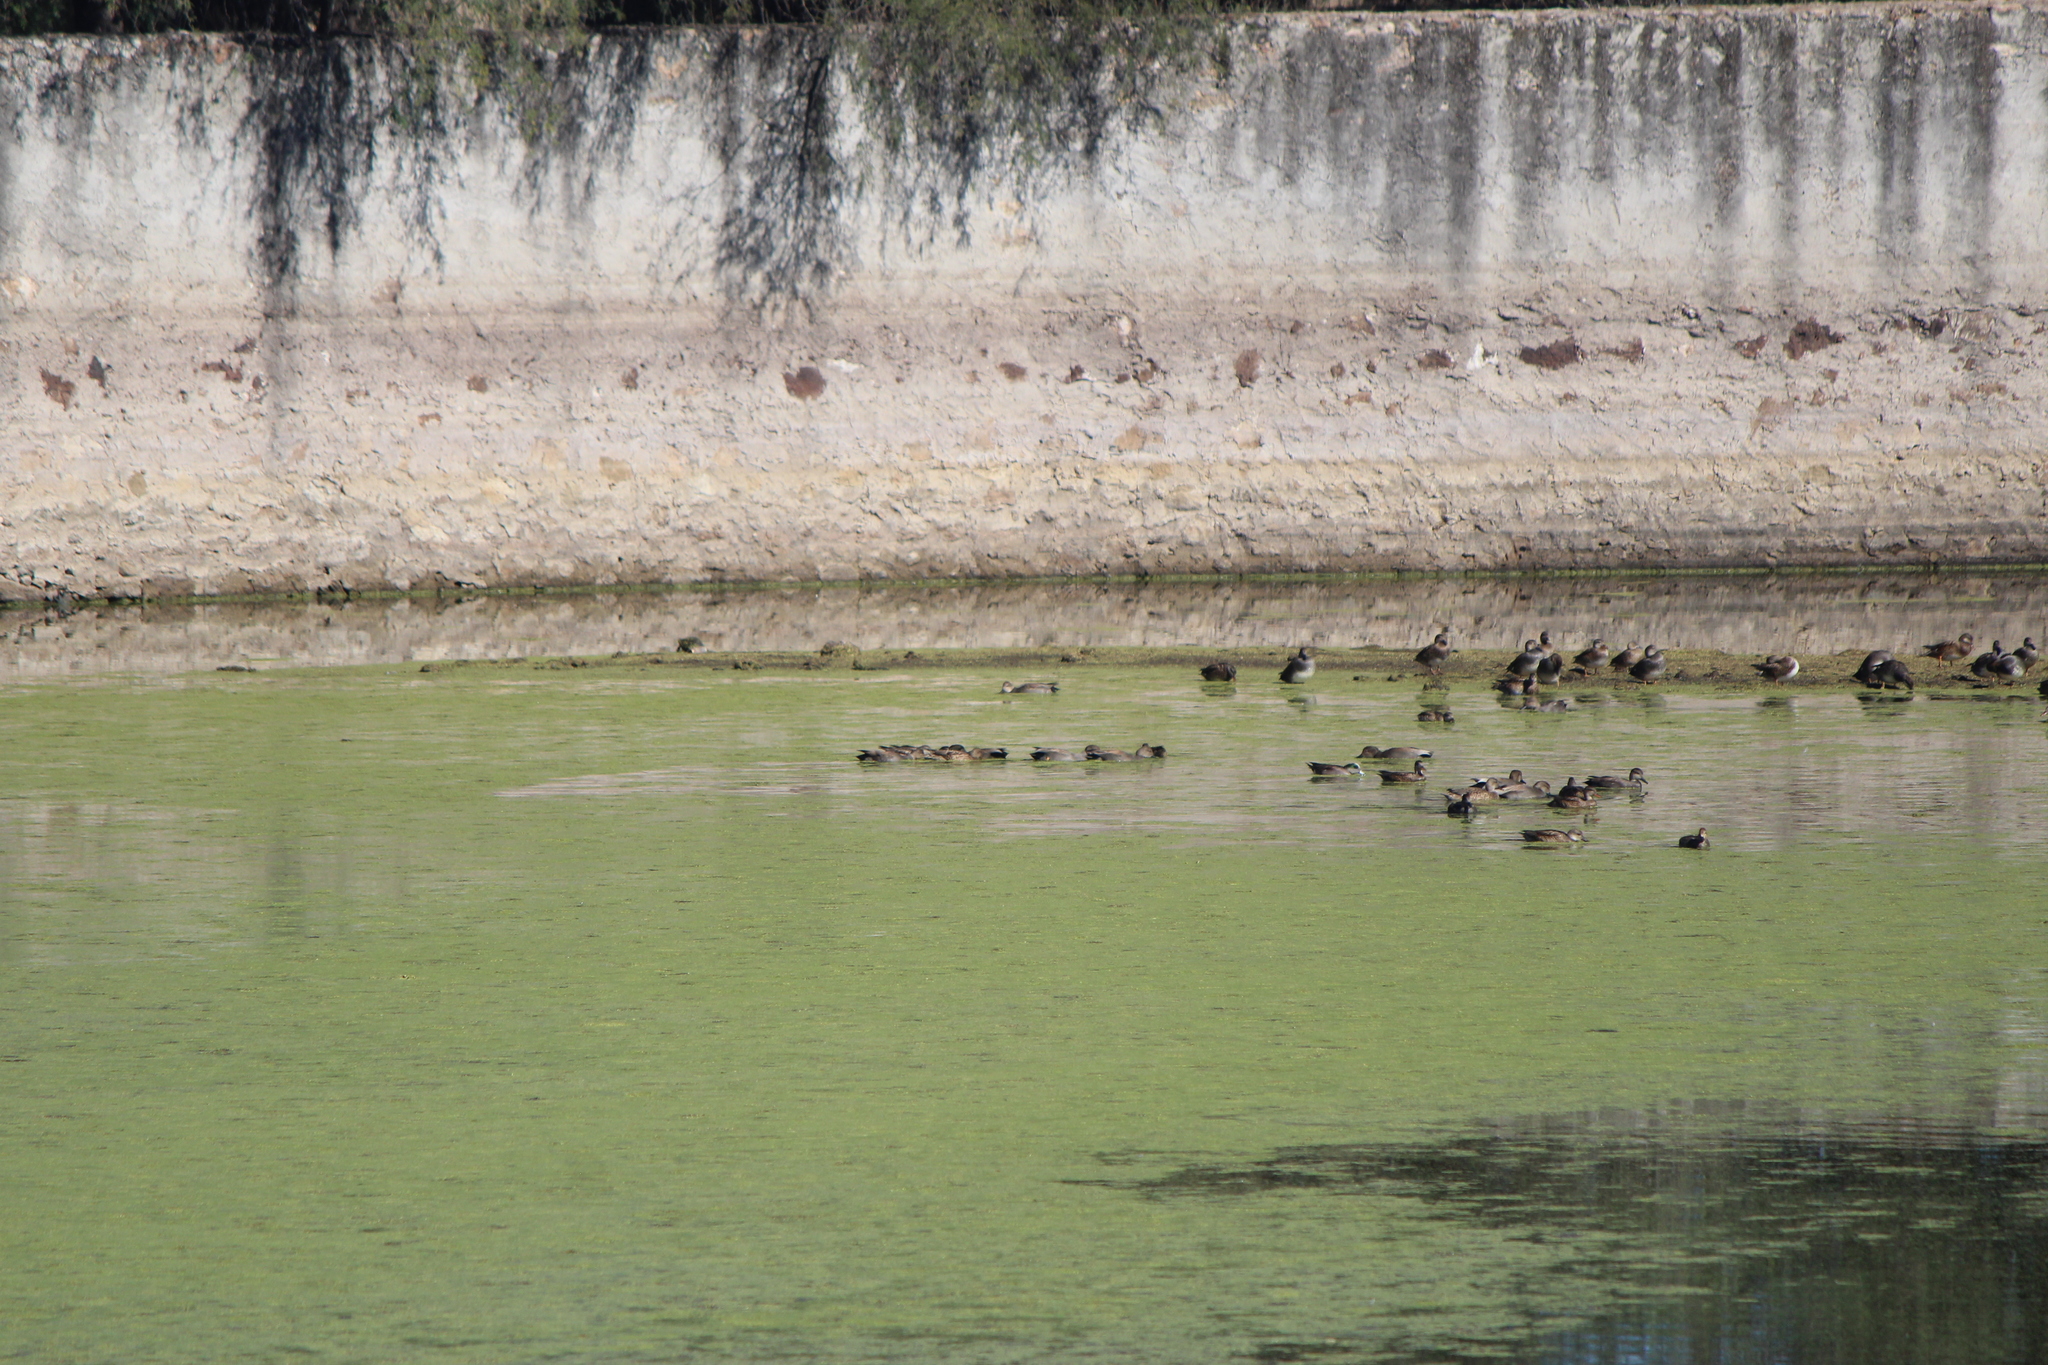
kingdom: Animalia
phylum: Chordata
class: Aves
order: Anseriformes
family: Anatidae
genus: Mareca
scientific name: Mareca americana
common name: American wigeon
